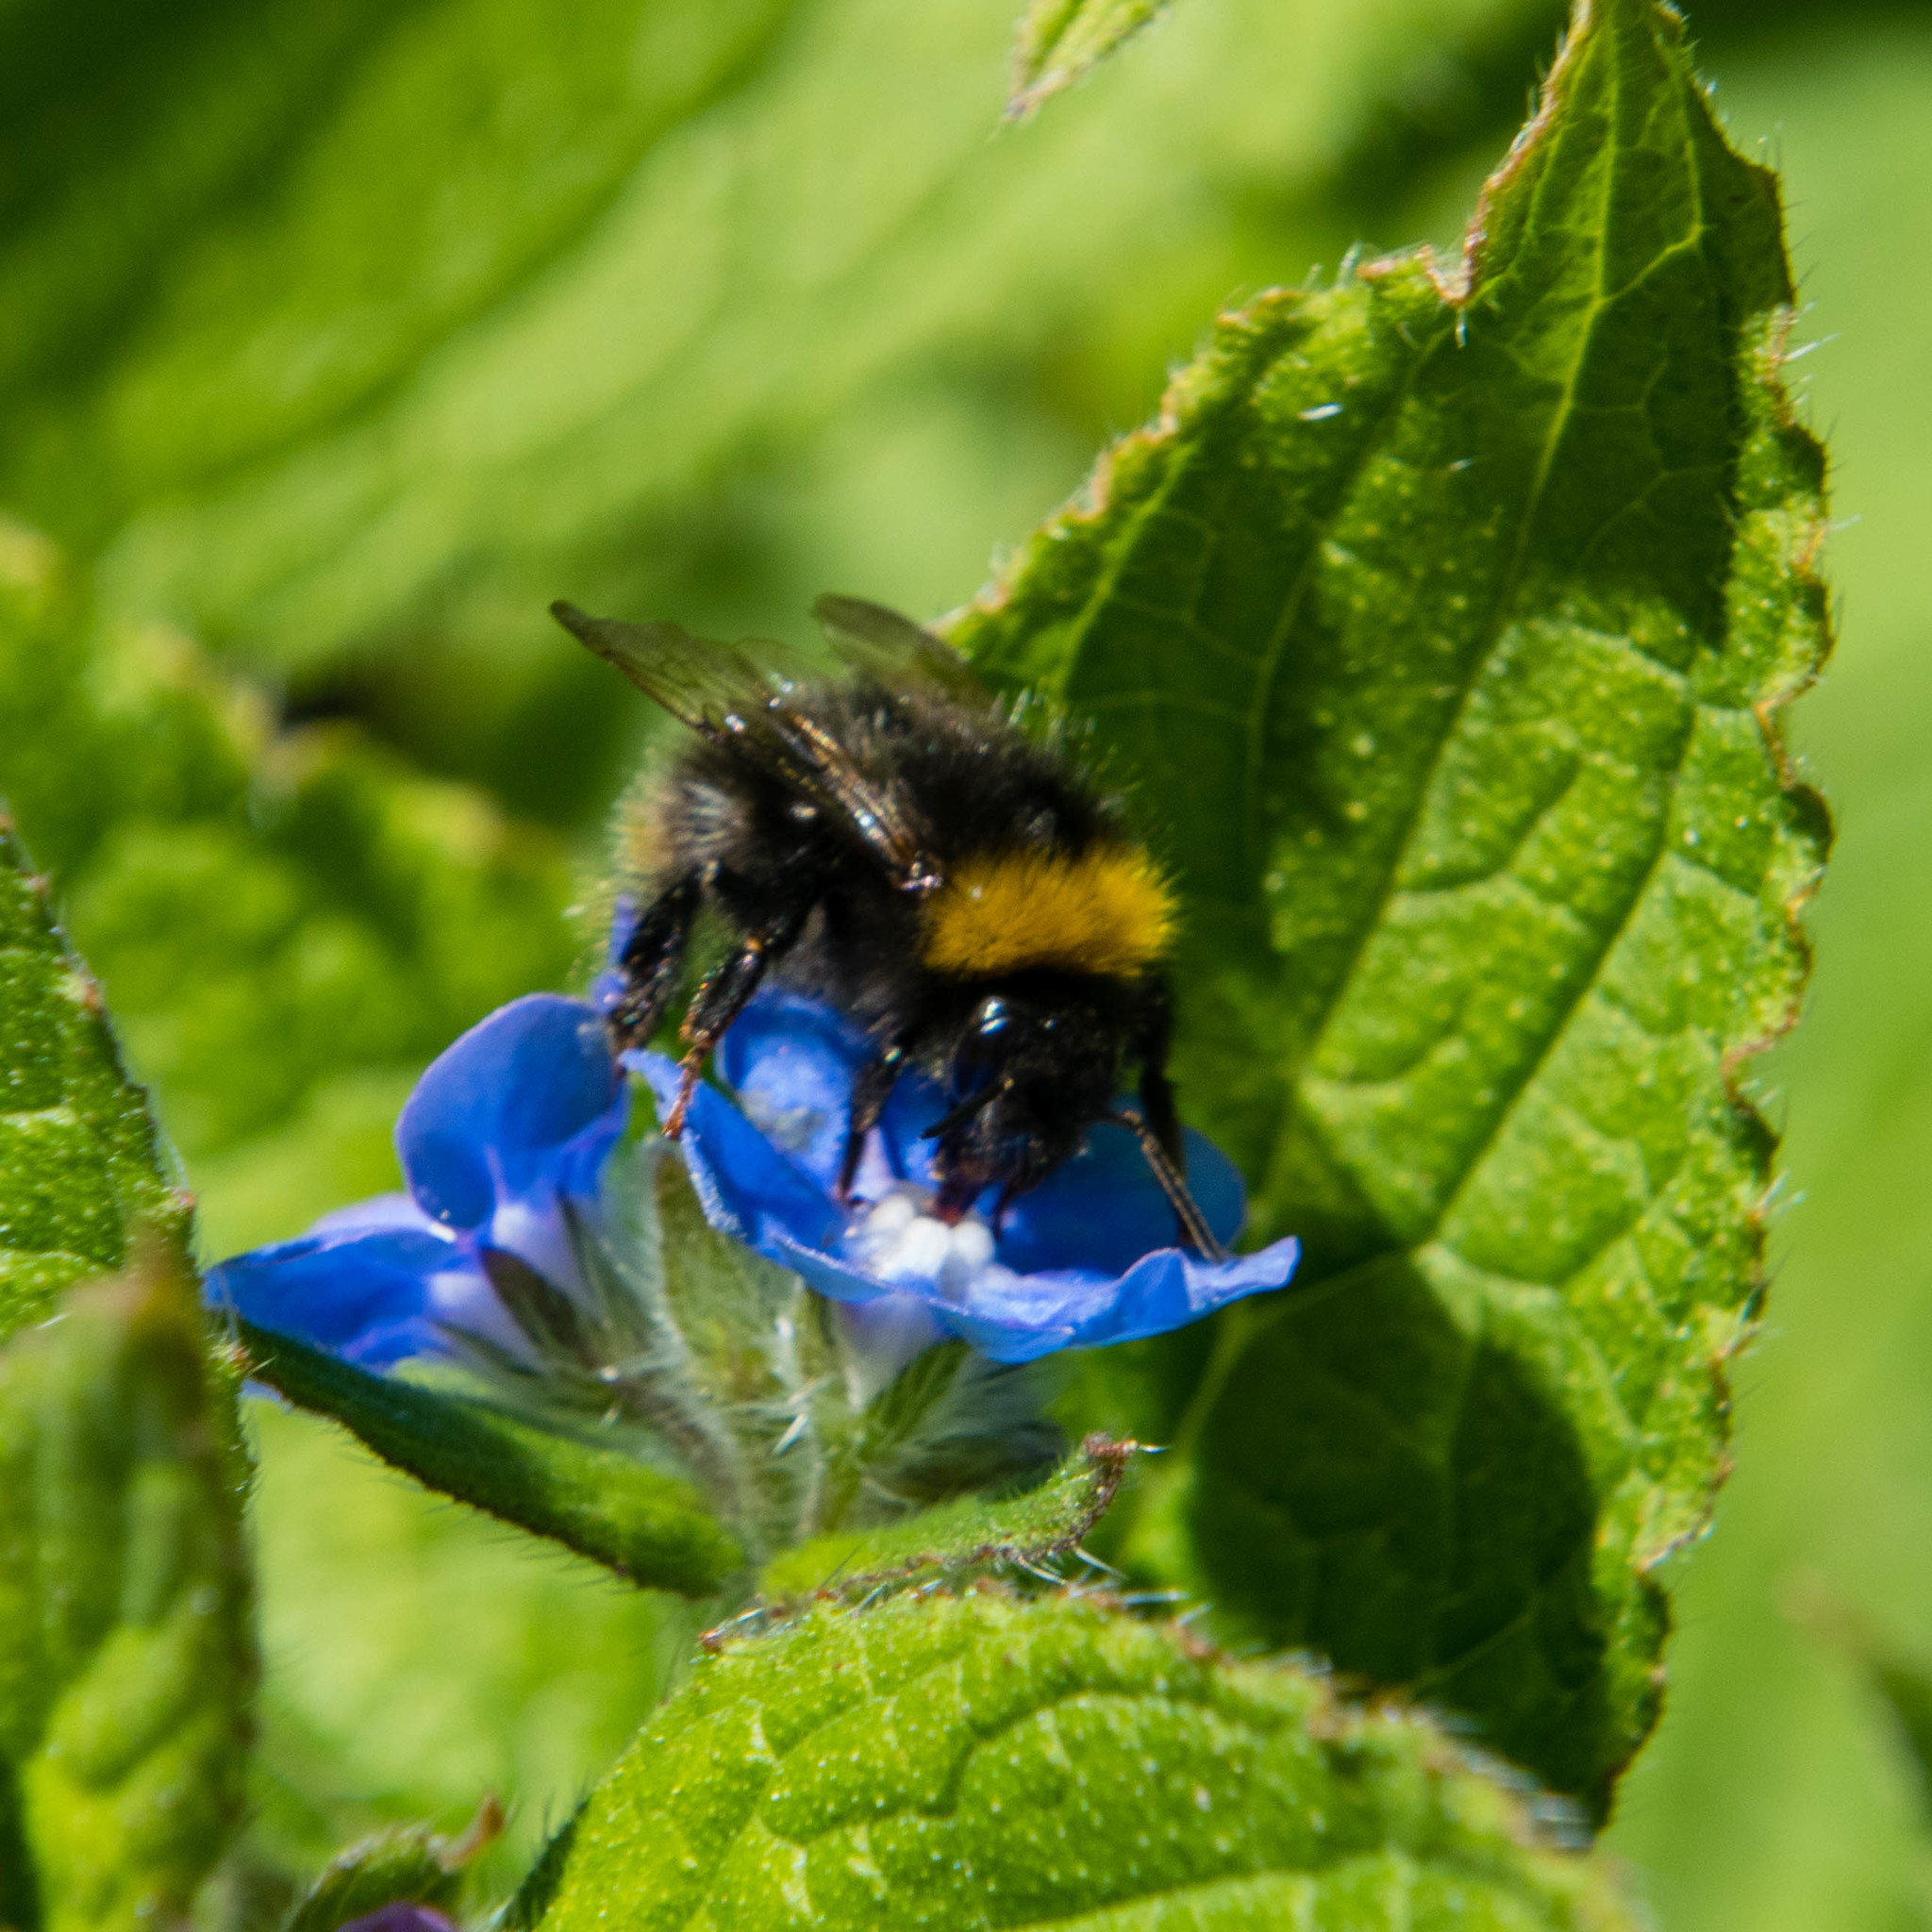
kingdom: Animalia
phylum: Arthropoda
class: Insecta
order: Hymenoptera
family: Apidae
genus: Bombus
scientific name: Bombus pratorum
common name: Early humble-bee
